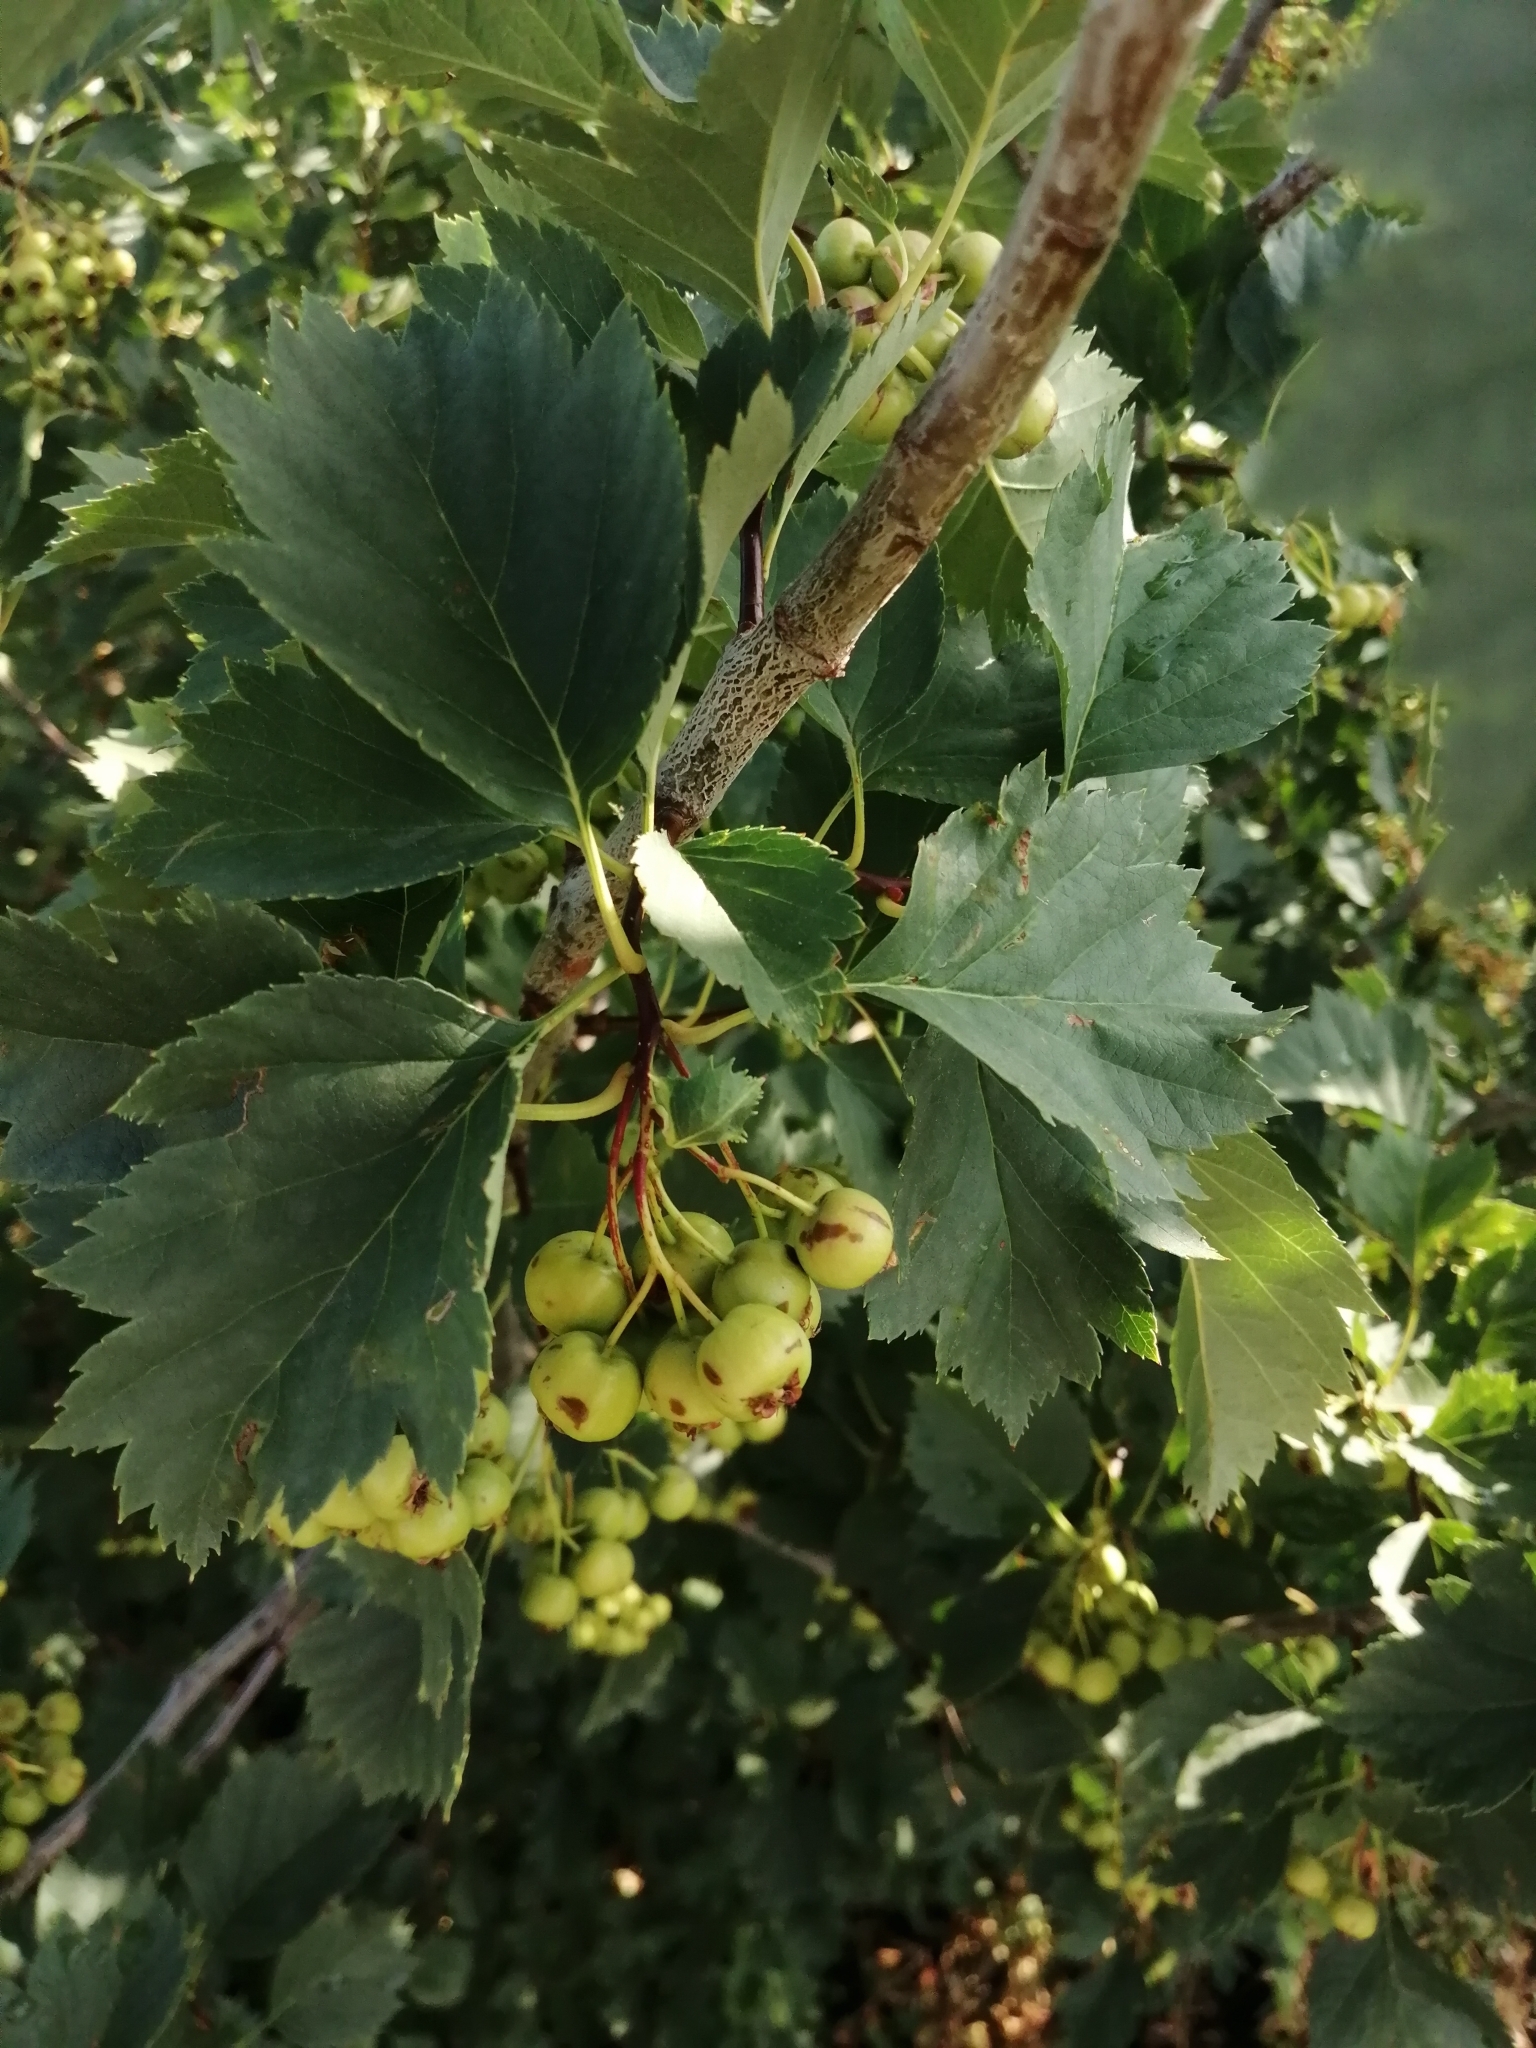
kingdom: Plantae
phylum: Tracheophyta
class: Magnoliopsida
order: Rosales
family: Rosaceae
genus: Crataegus
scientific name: Crataegus sanguinea
